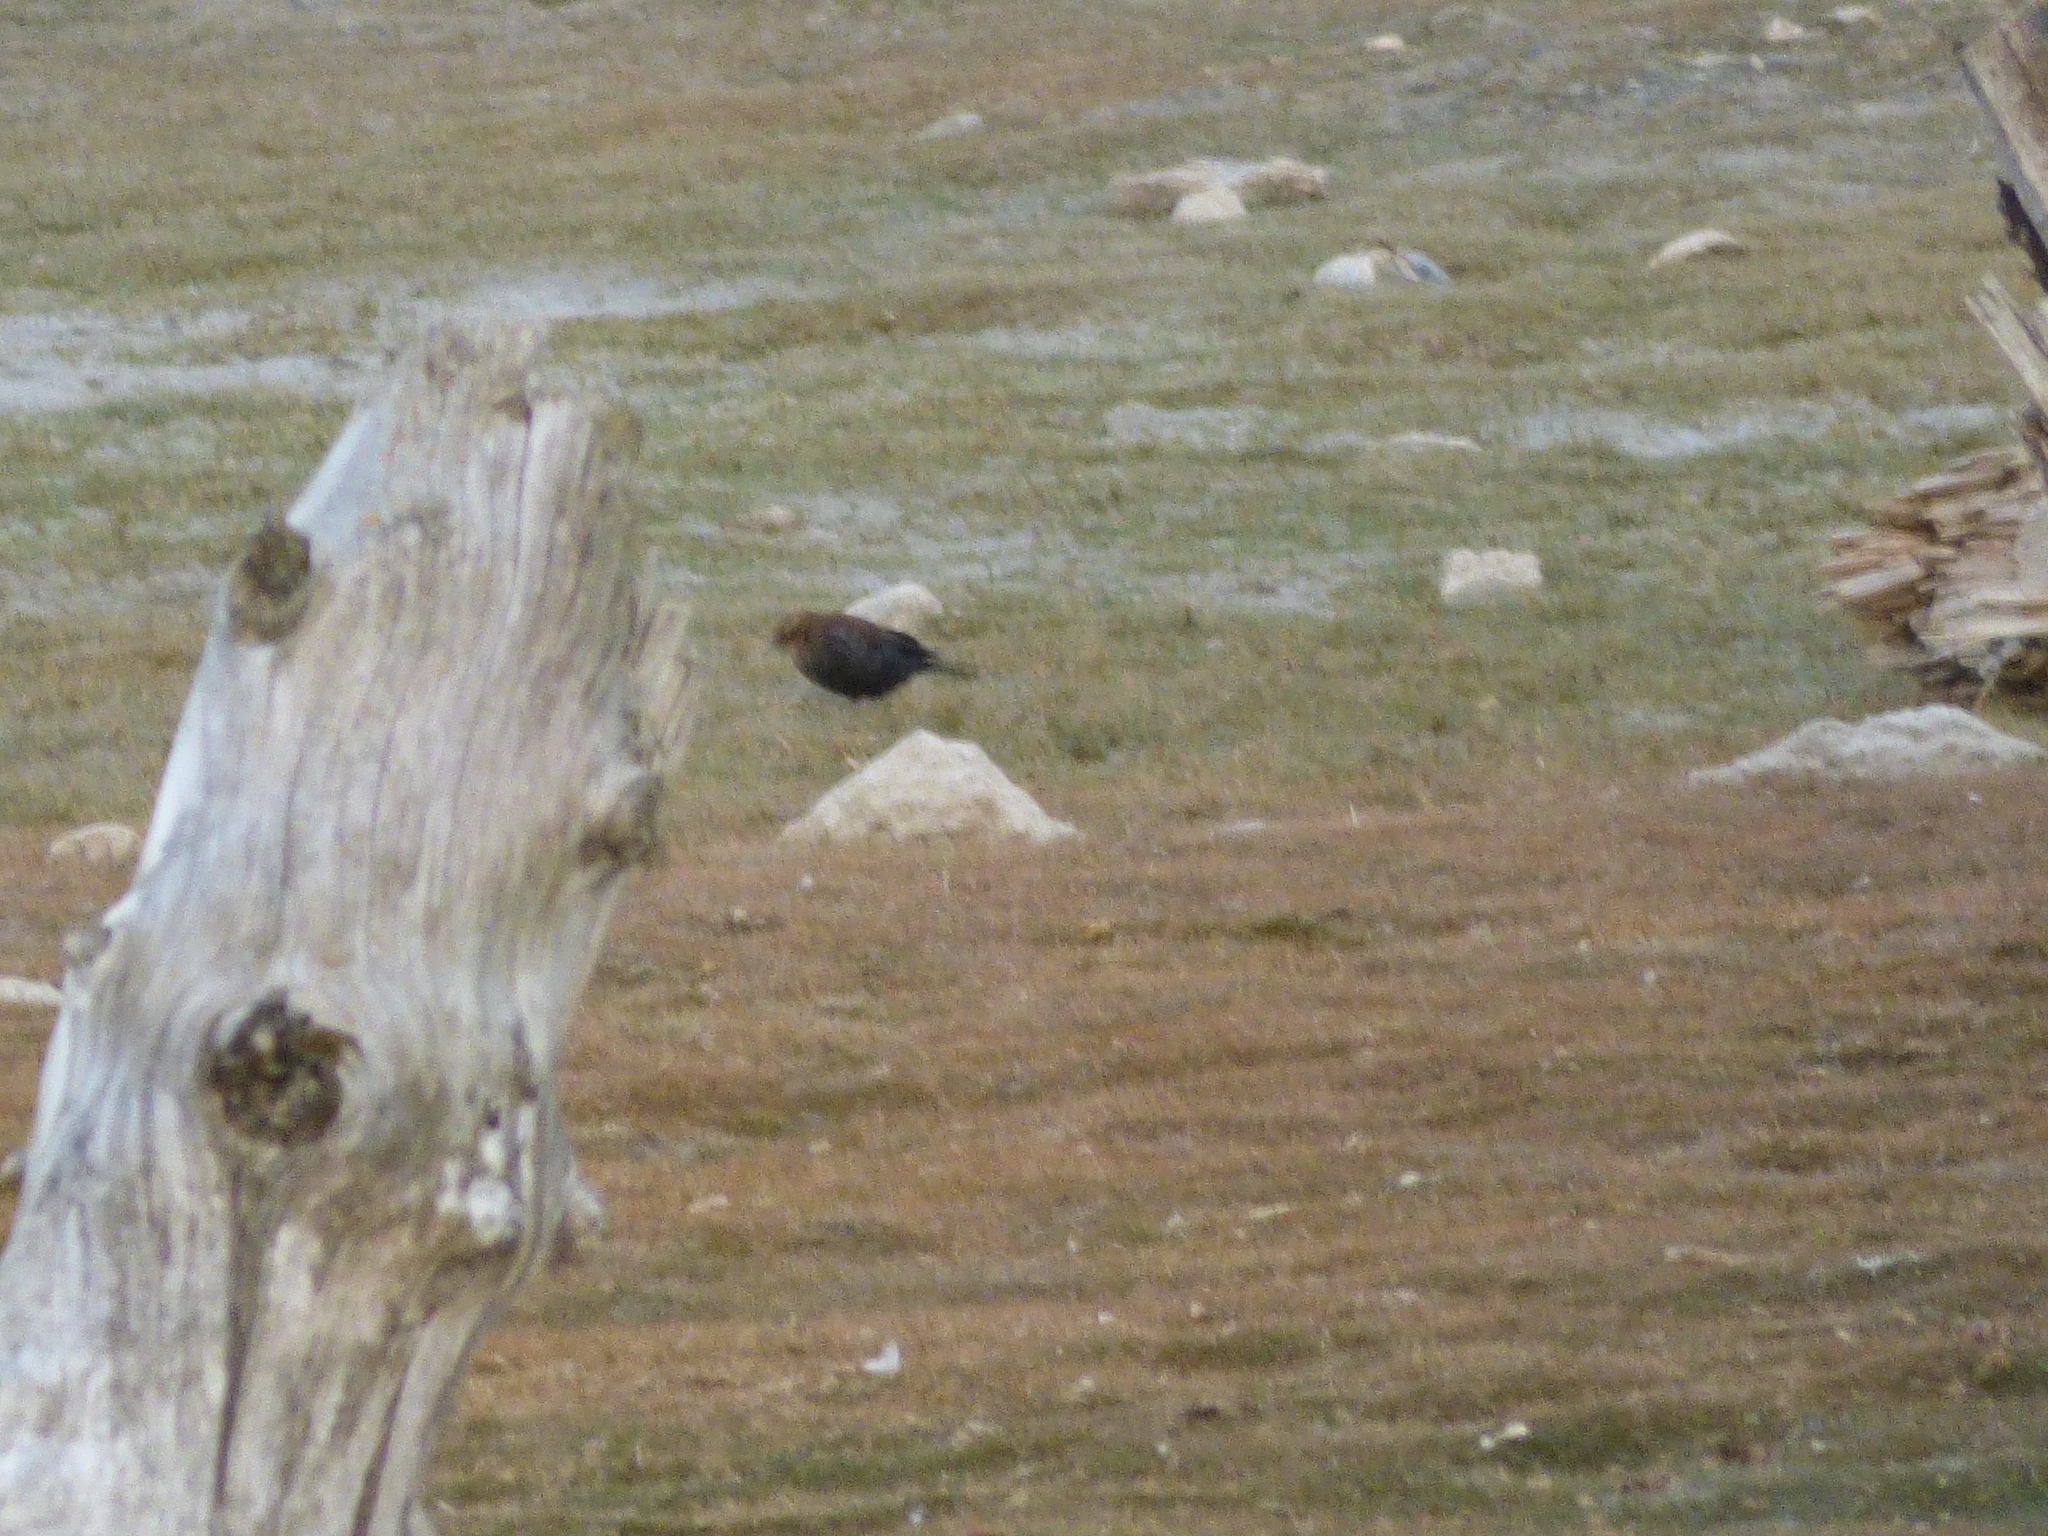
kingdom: Animalia
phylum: Chordata
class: Aves
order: Passeriformes
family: Icteridae
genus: Euphagus
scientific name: Euphagus carolinus
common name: Rusty blackbird
